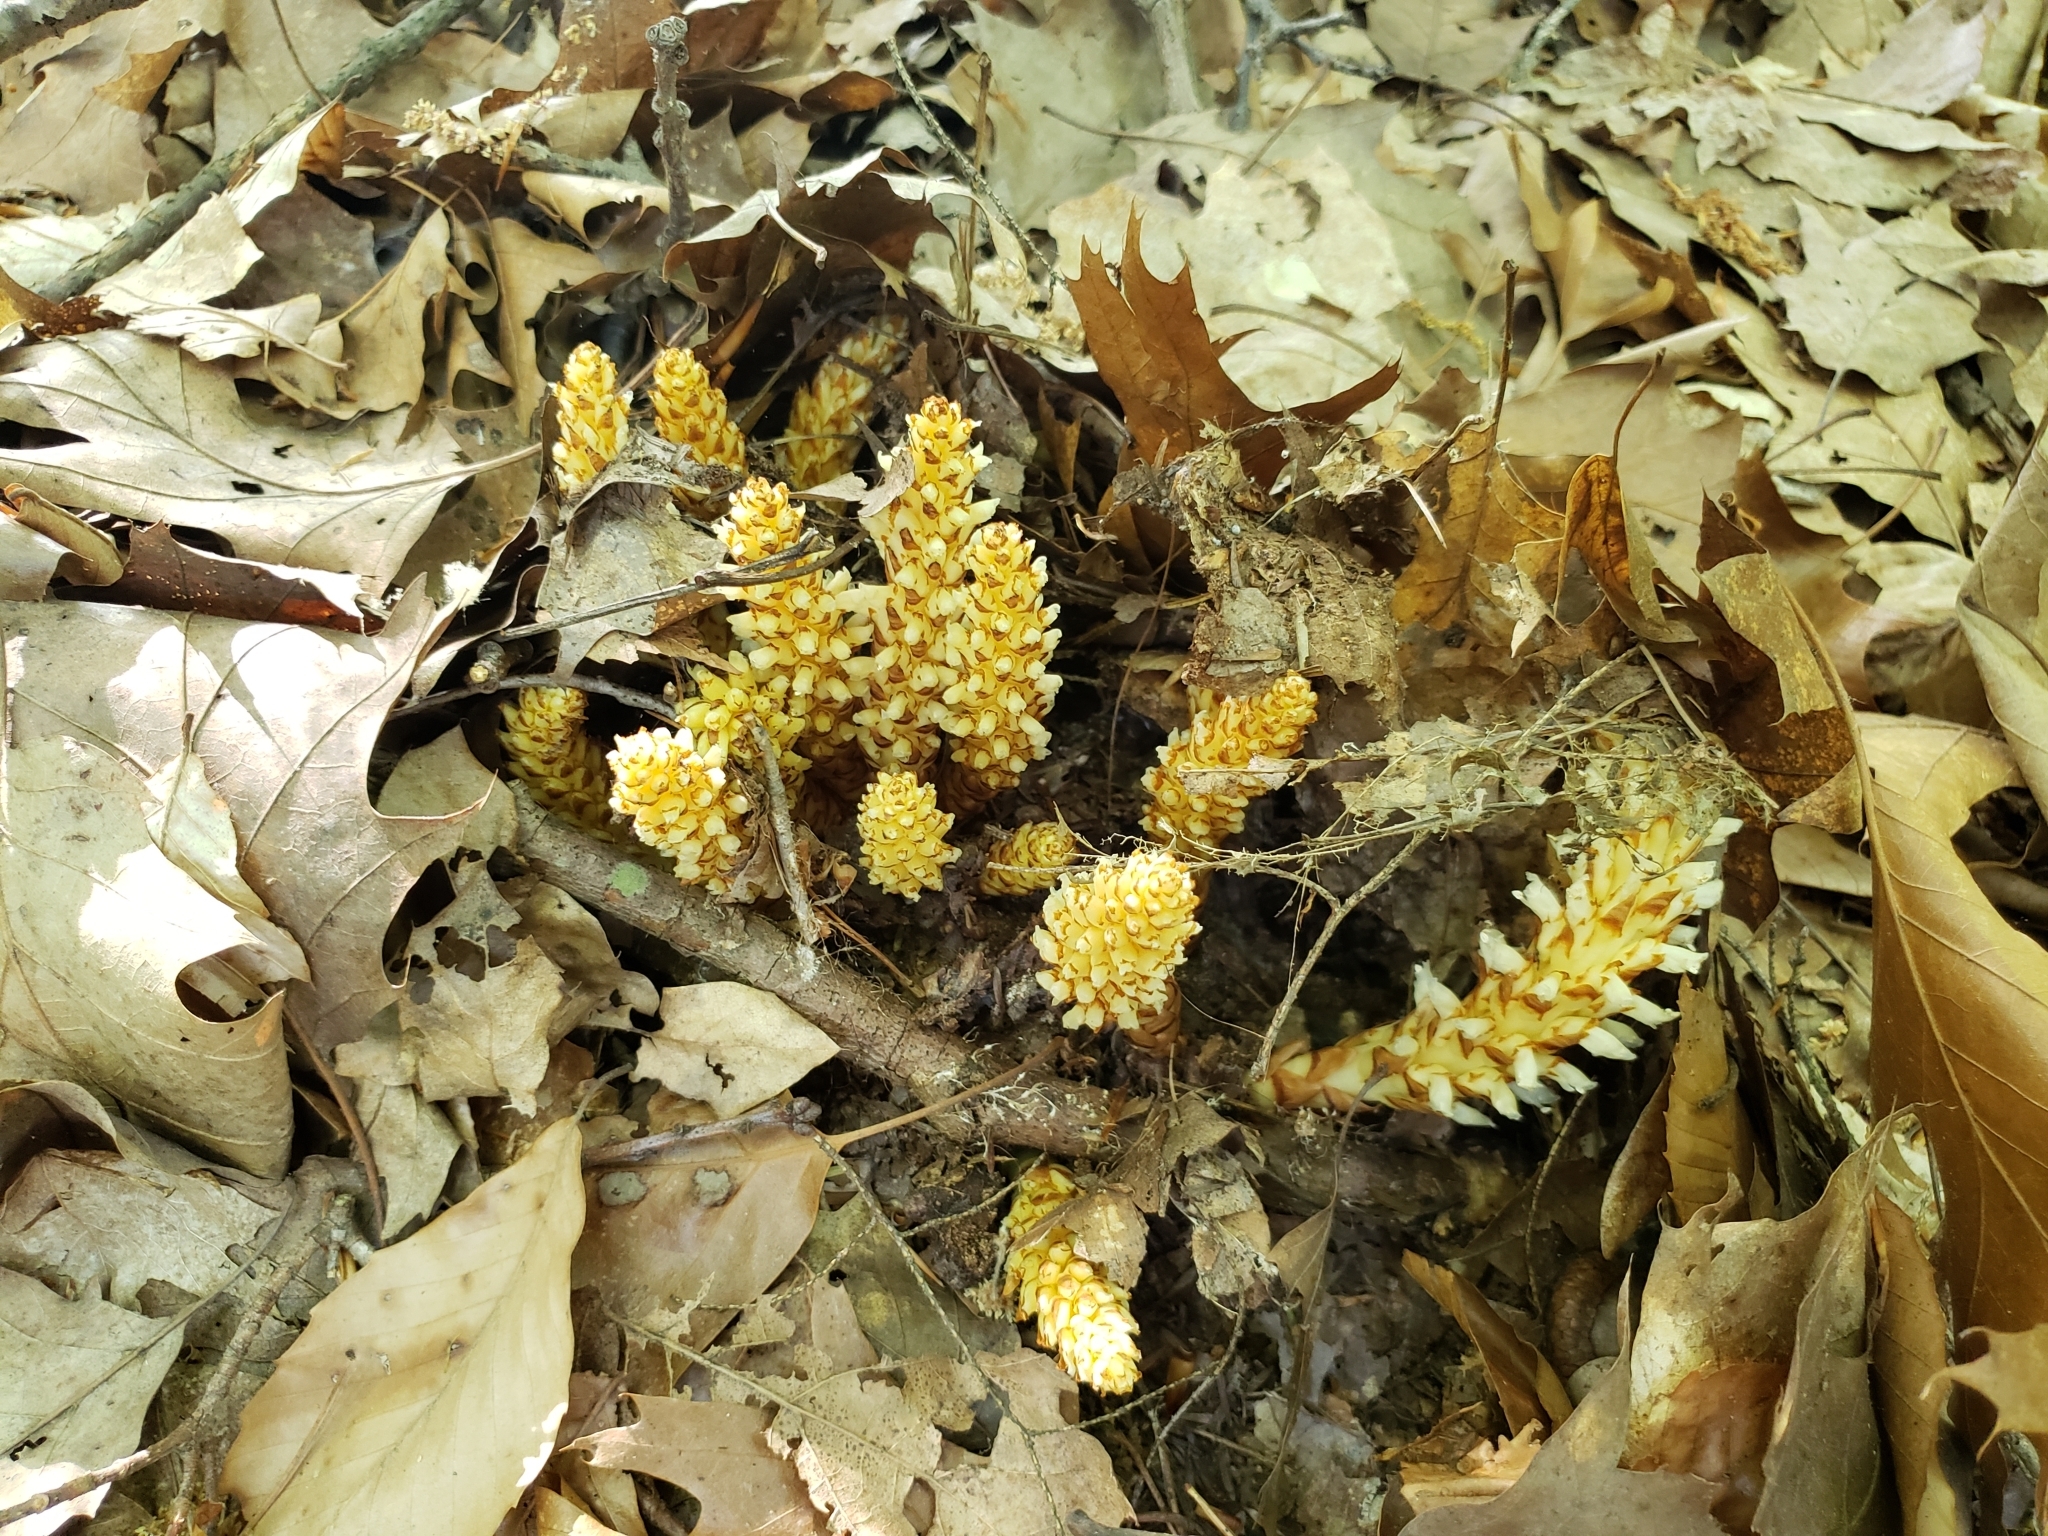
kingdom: Plantae
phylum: Tracheophyta
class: Magnoliopsida
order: Lamiales
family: Orobanchaceae
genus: Conopholis
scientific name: Conopholis americana
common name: American cancer-root
